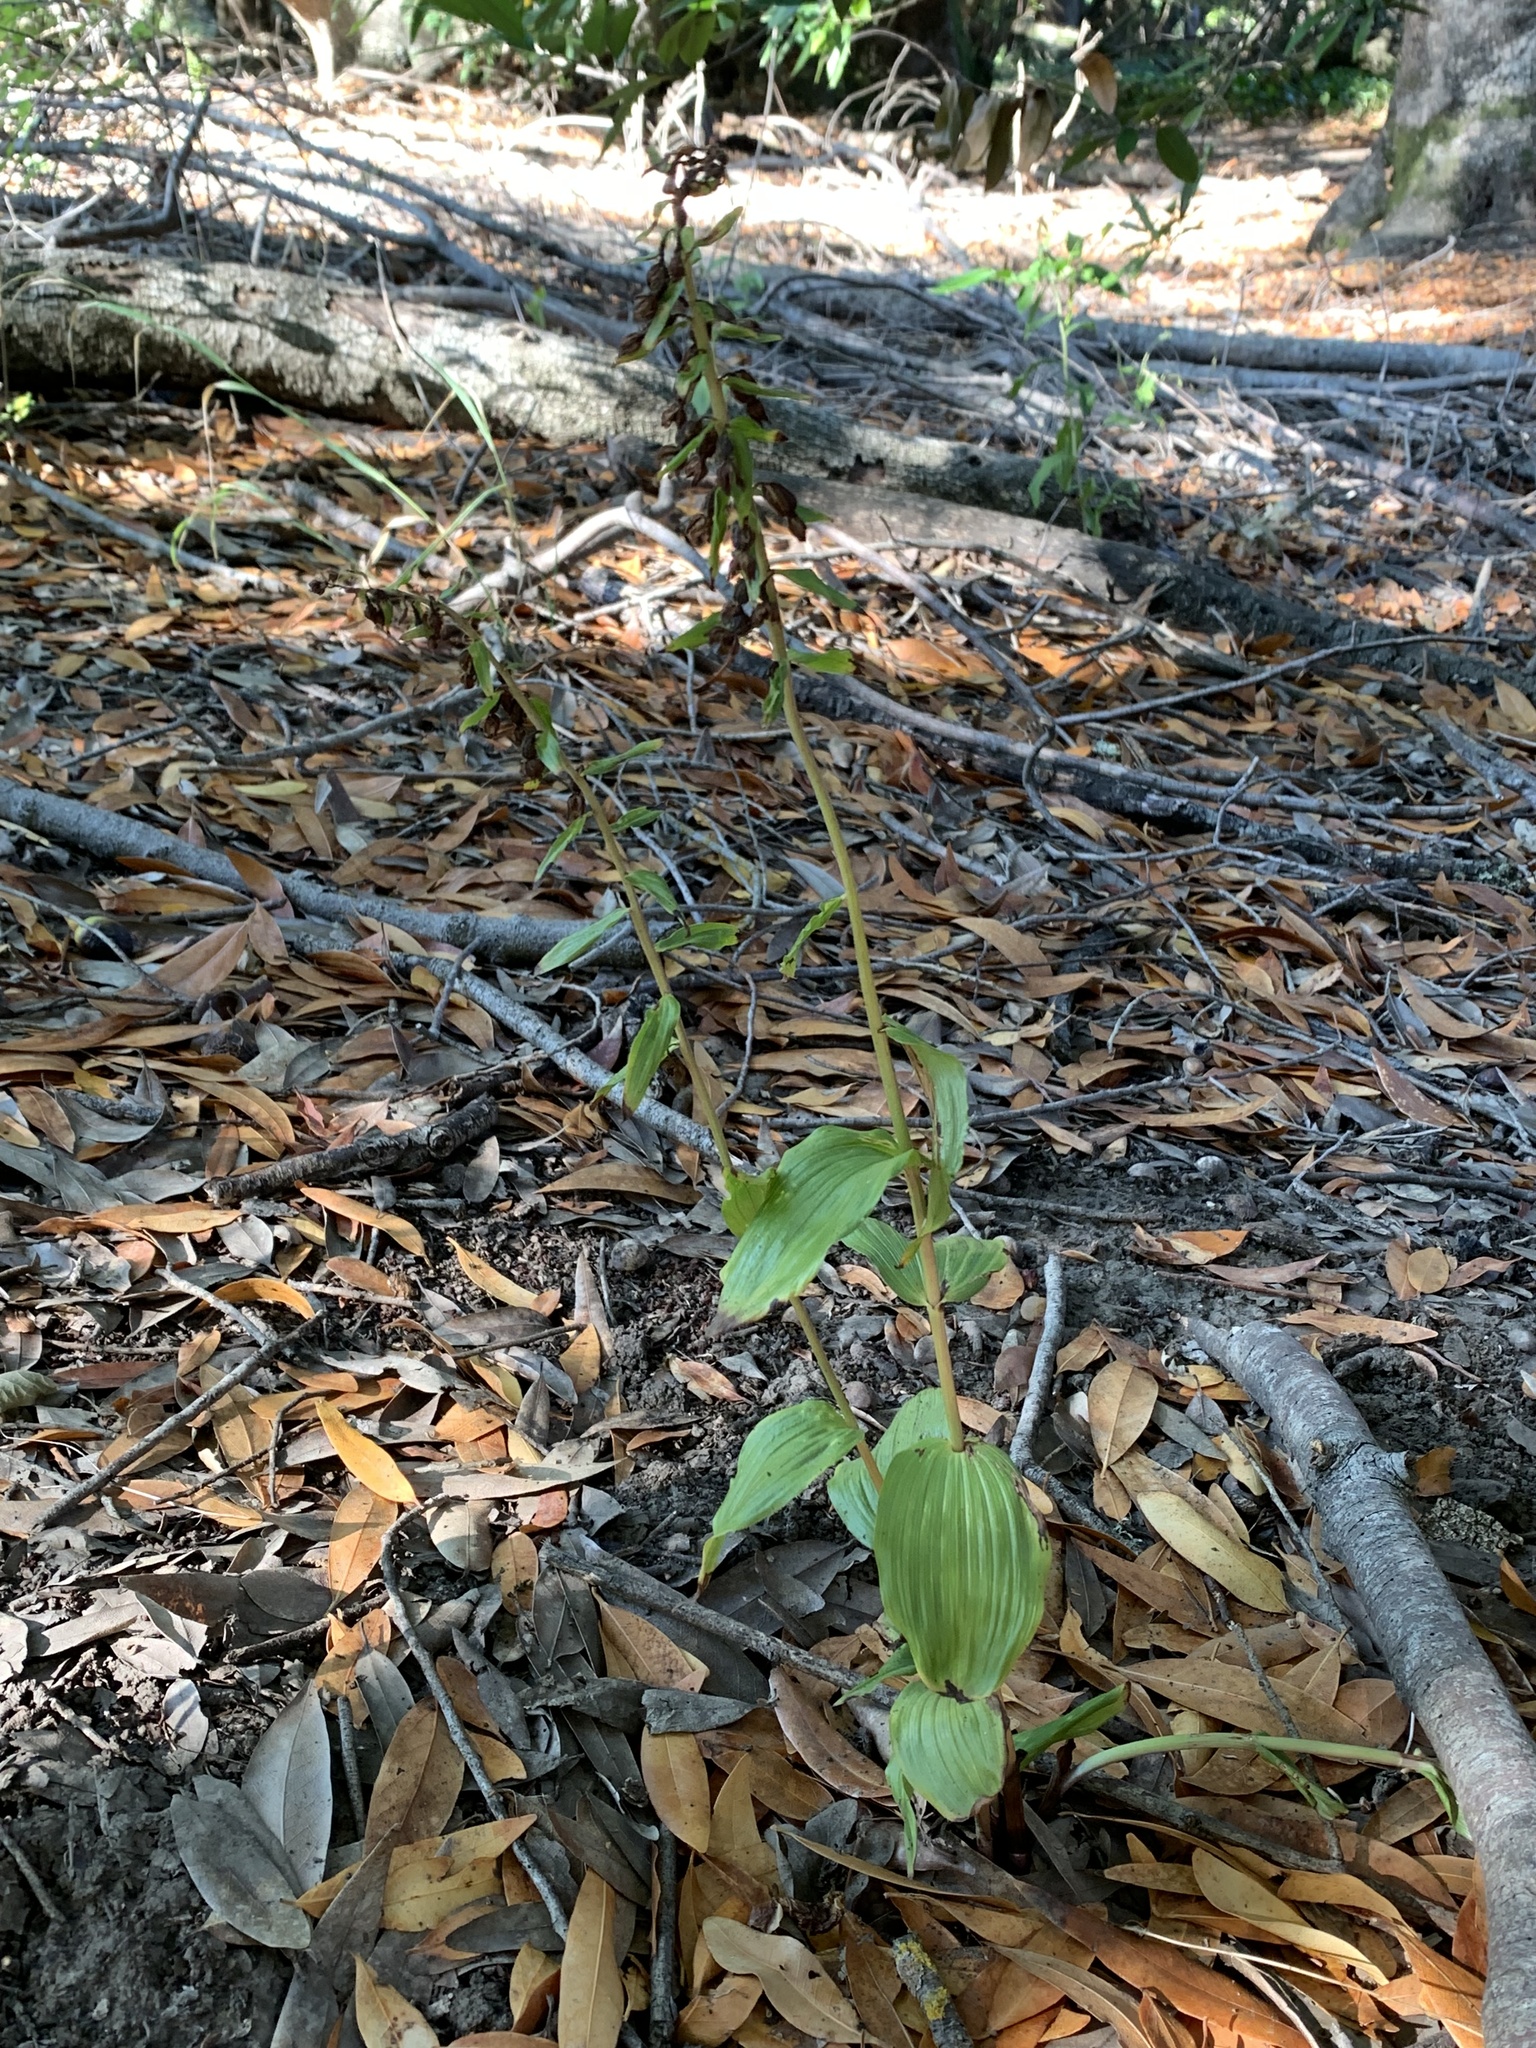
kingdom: Plantae
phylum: Tracheophyta
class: Liliopsida
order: Asparagales
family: Orchidaceae
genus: Epipactis
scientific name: Epipactis helleborine
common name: Broad-leaved helleborine
